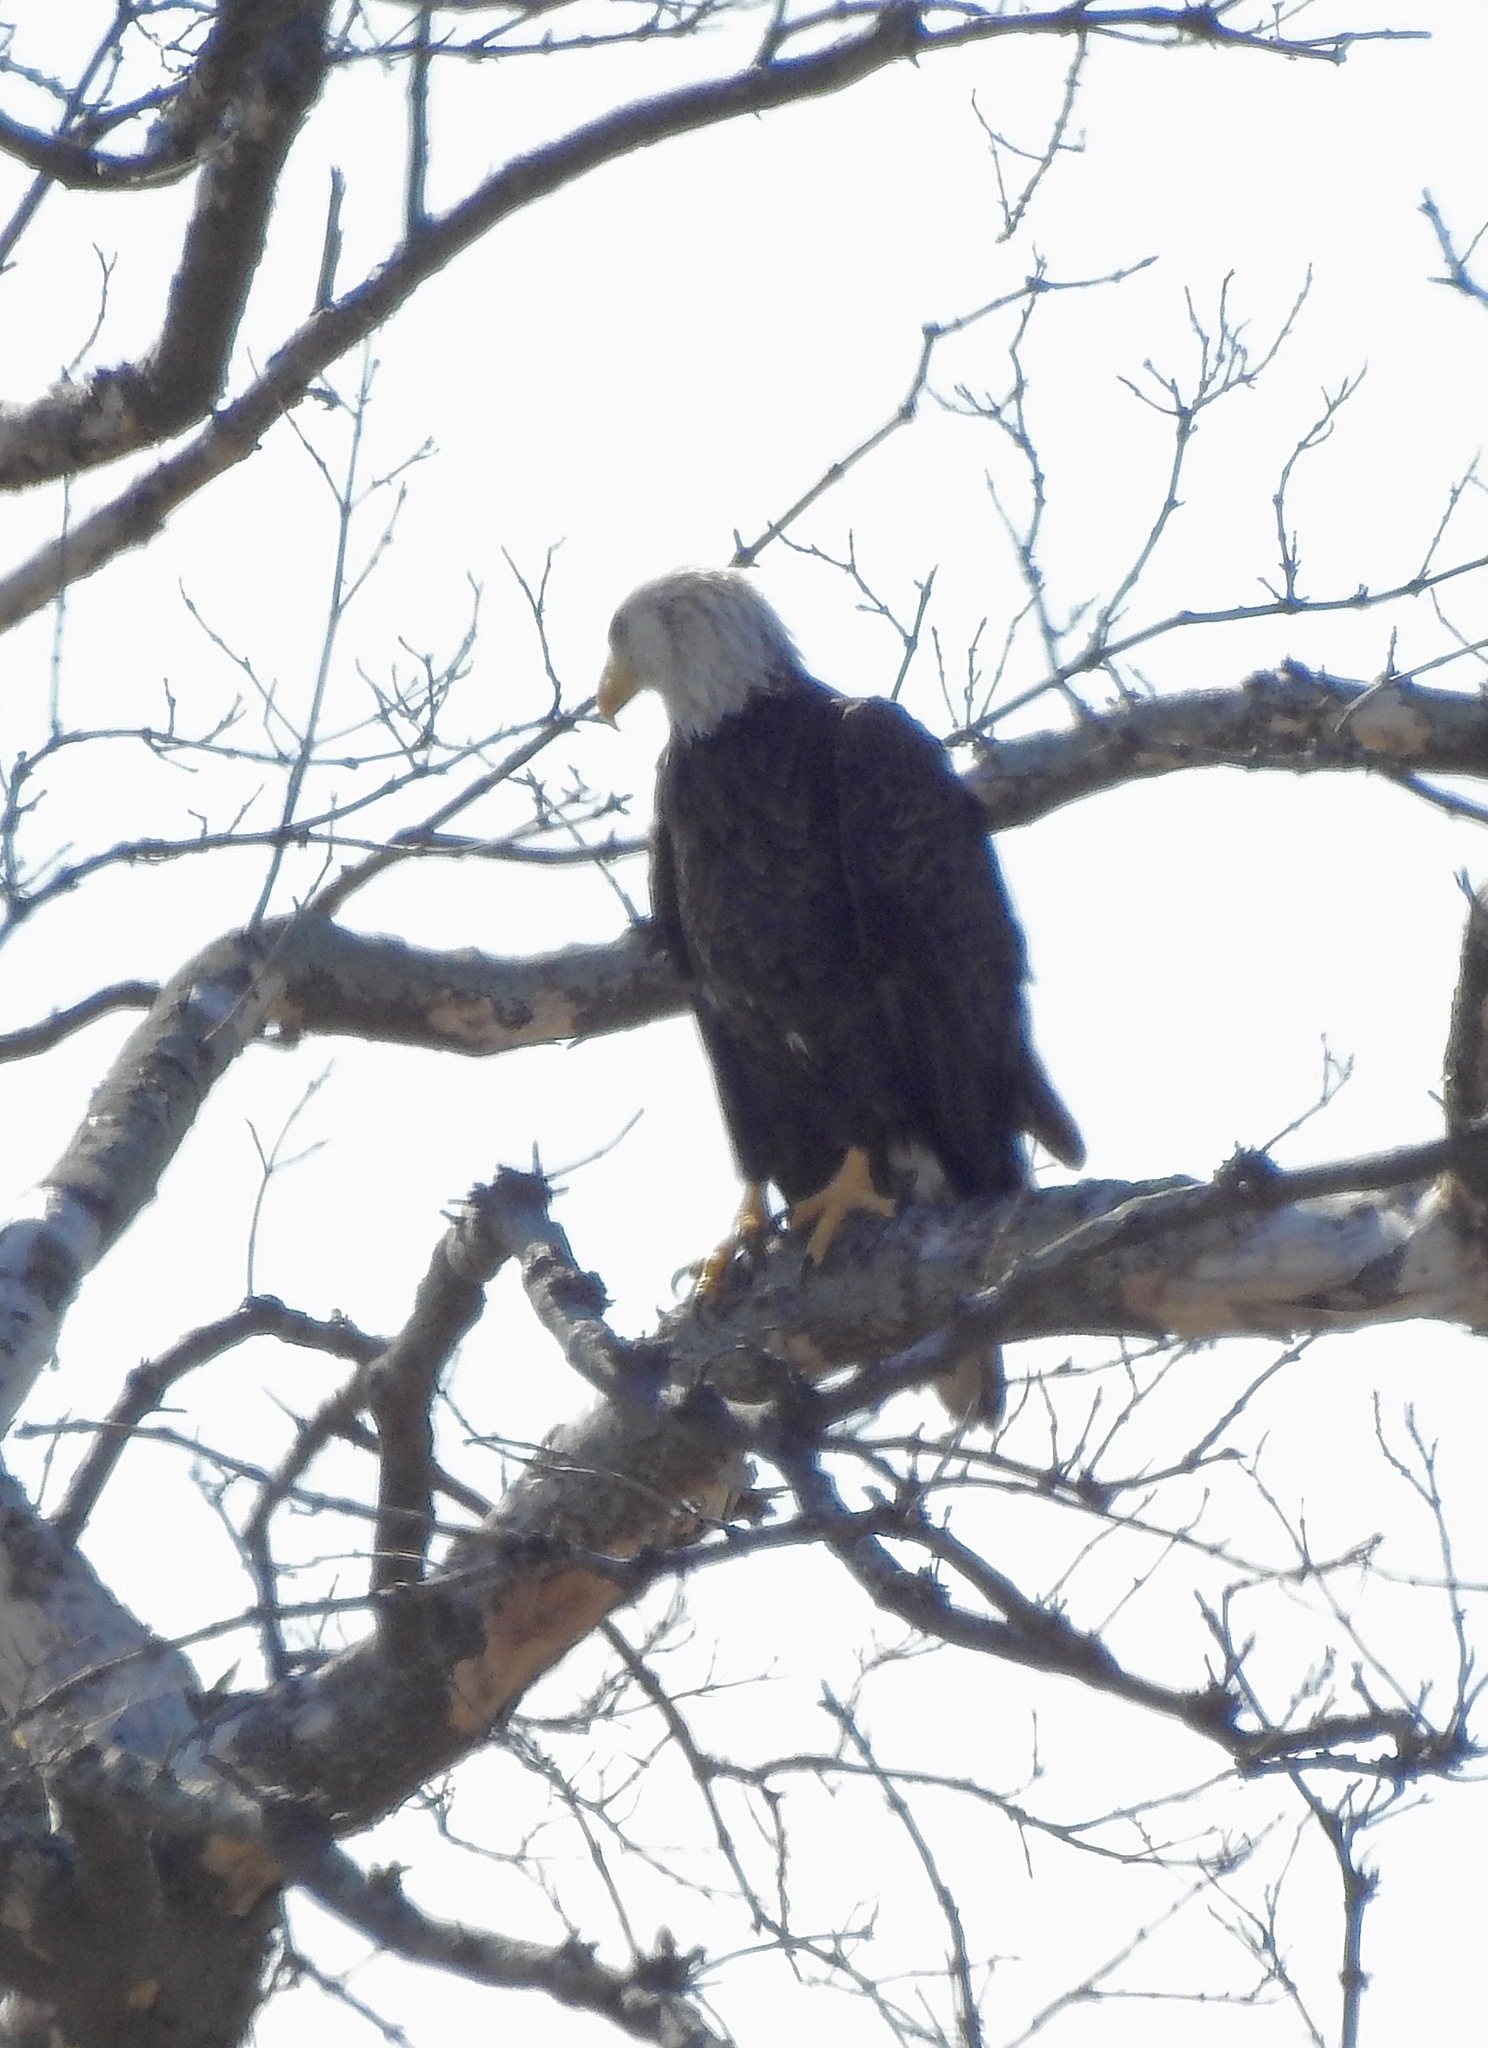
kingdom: Animalia
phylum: Chordata
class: Aves
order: Accipitriformes
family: Accipitridae
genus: Haliaeetus
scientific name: Haliaeetus leucocephalus
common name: Bald eagle
